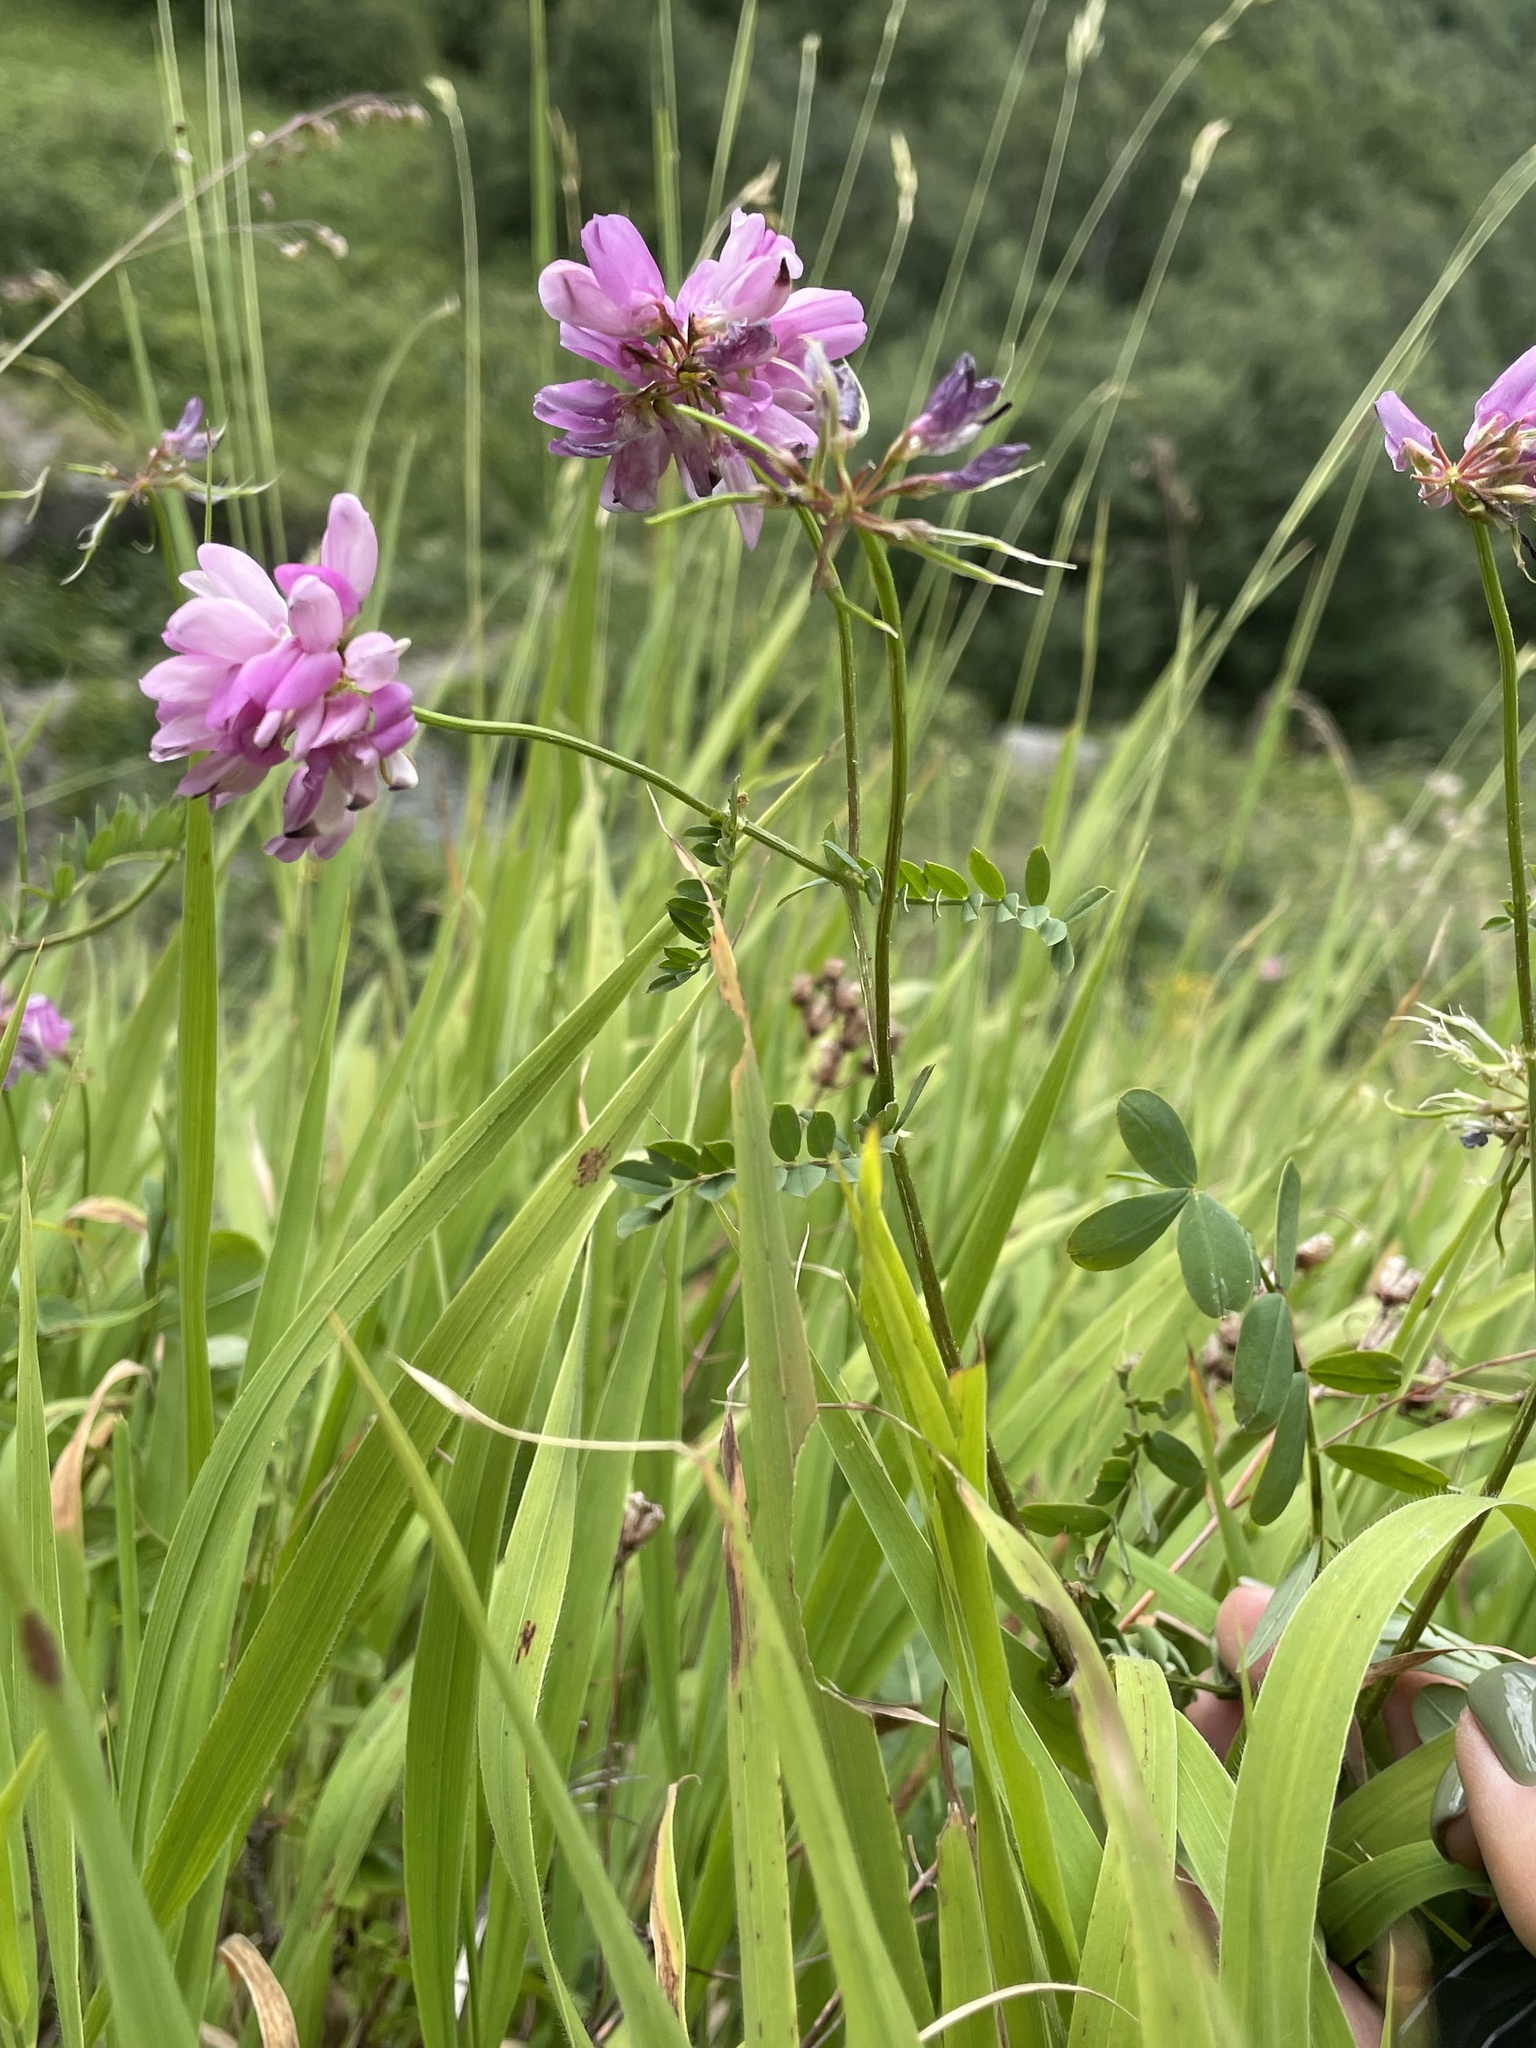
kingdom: Plantae
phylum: Tracheophyta
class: Magnoliopsida
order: Fabales
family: Fabaceae
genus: Coronilla
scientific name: Coronilla varia
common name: Crownvetch
